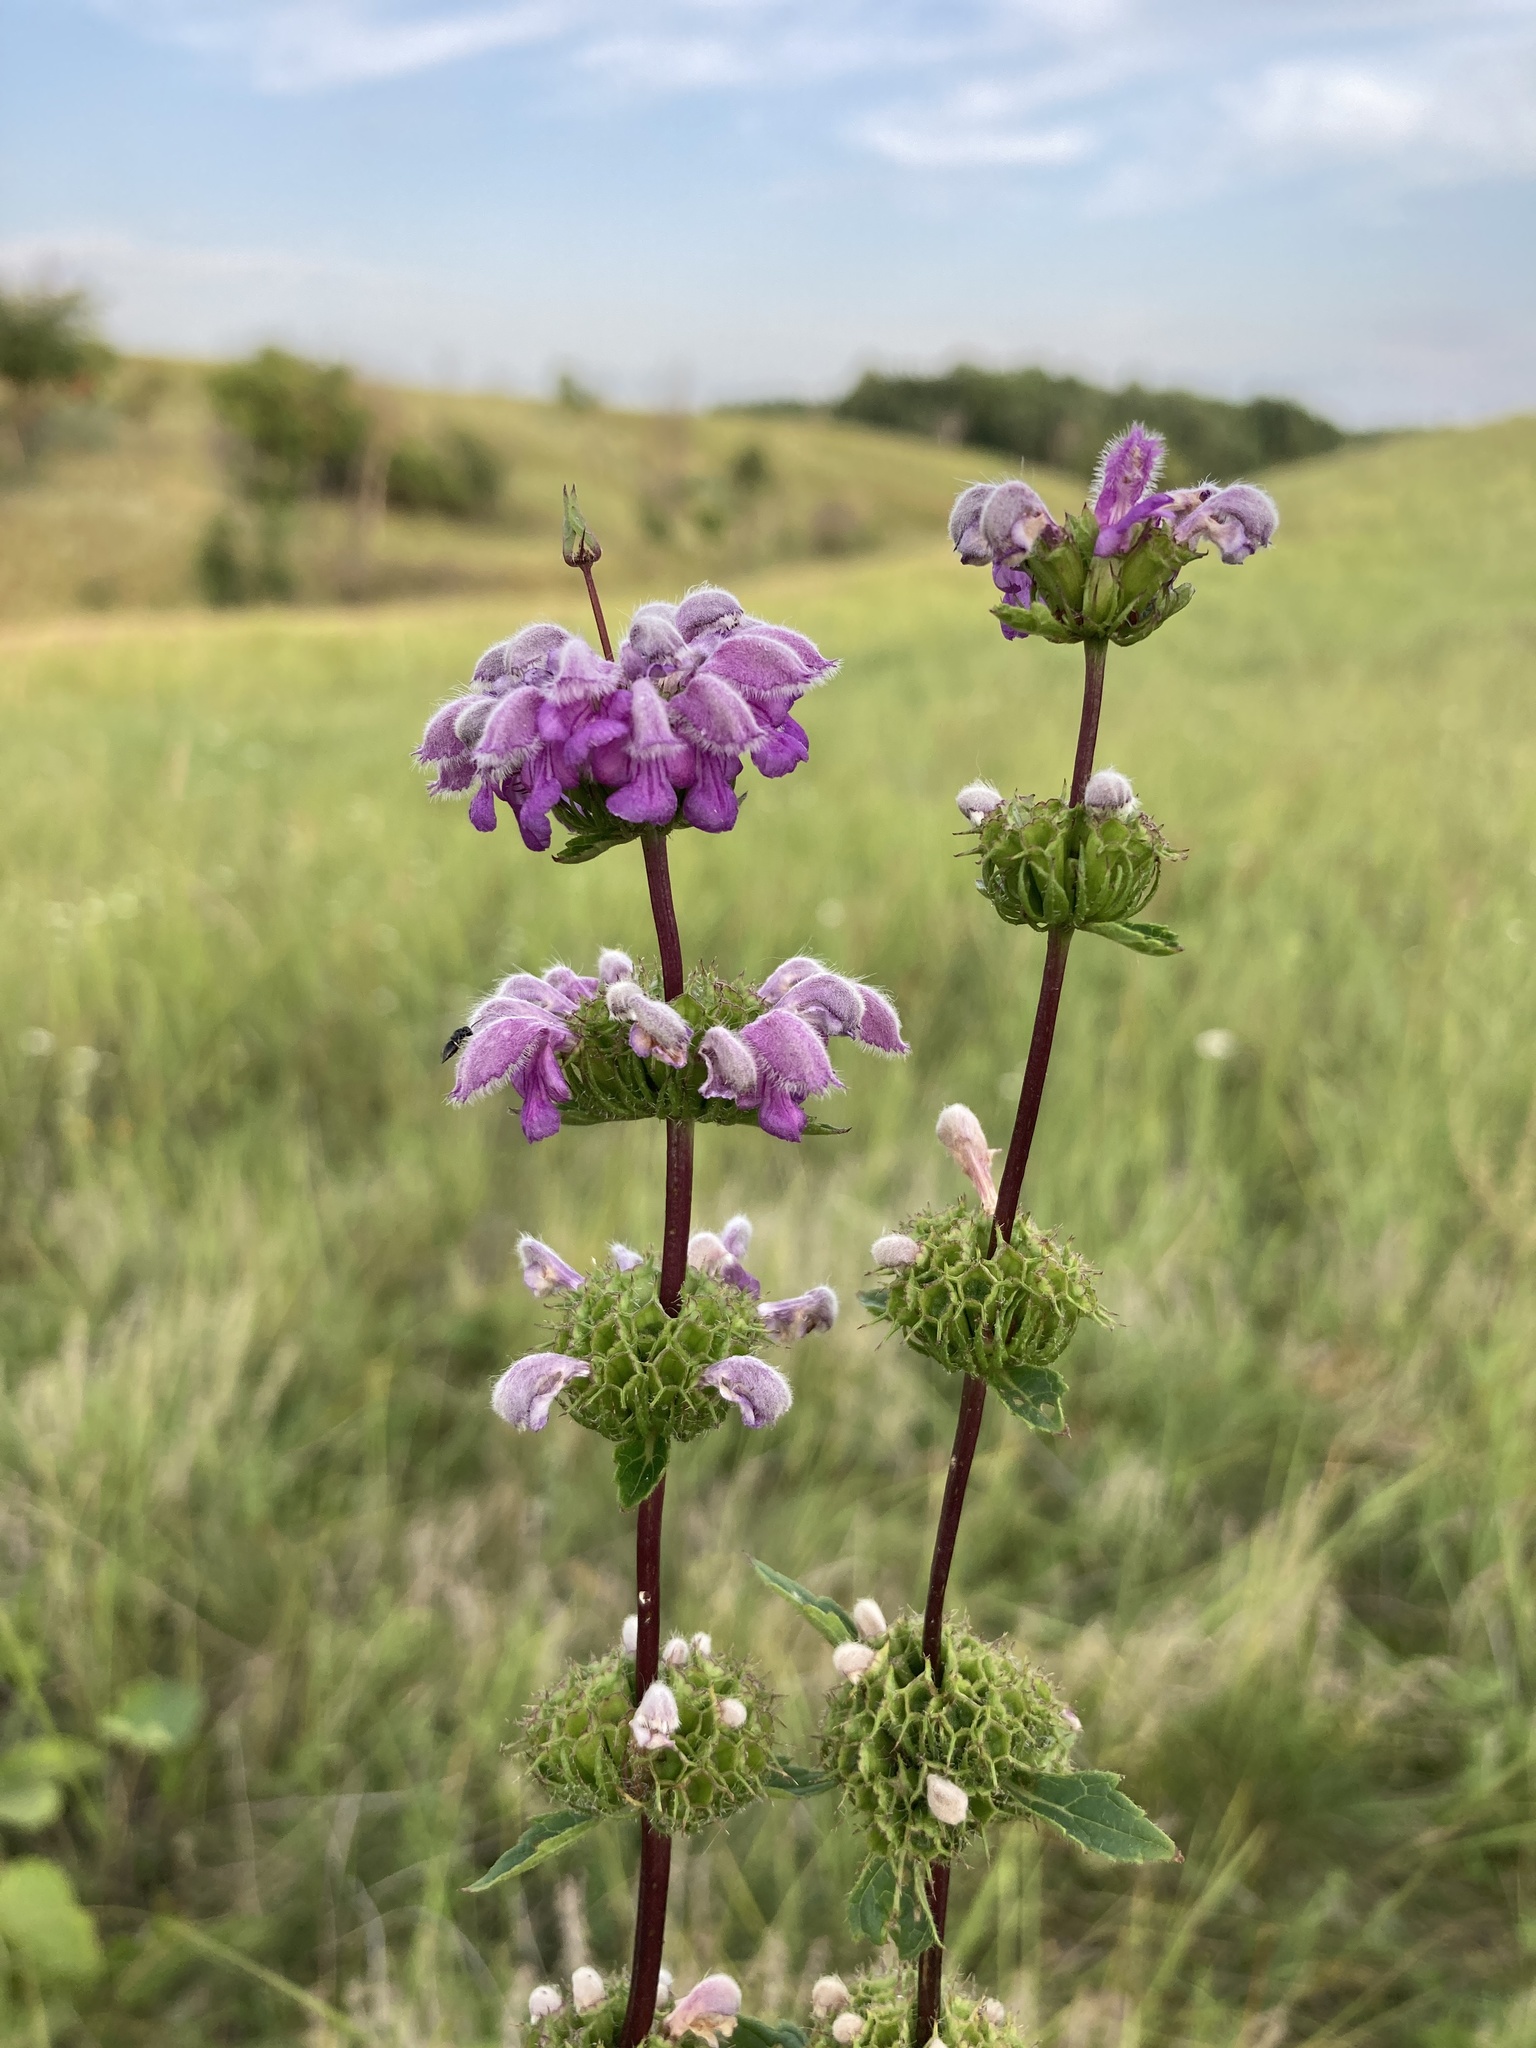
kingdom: Plantae
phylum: Tracheophyta
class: Magnoliopsida
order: Lamiales
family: Lamiaceae
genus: Phlomoides
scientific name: Phlomoides tuberosa
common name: Tuberous jerusalem sage
